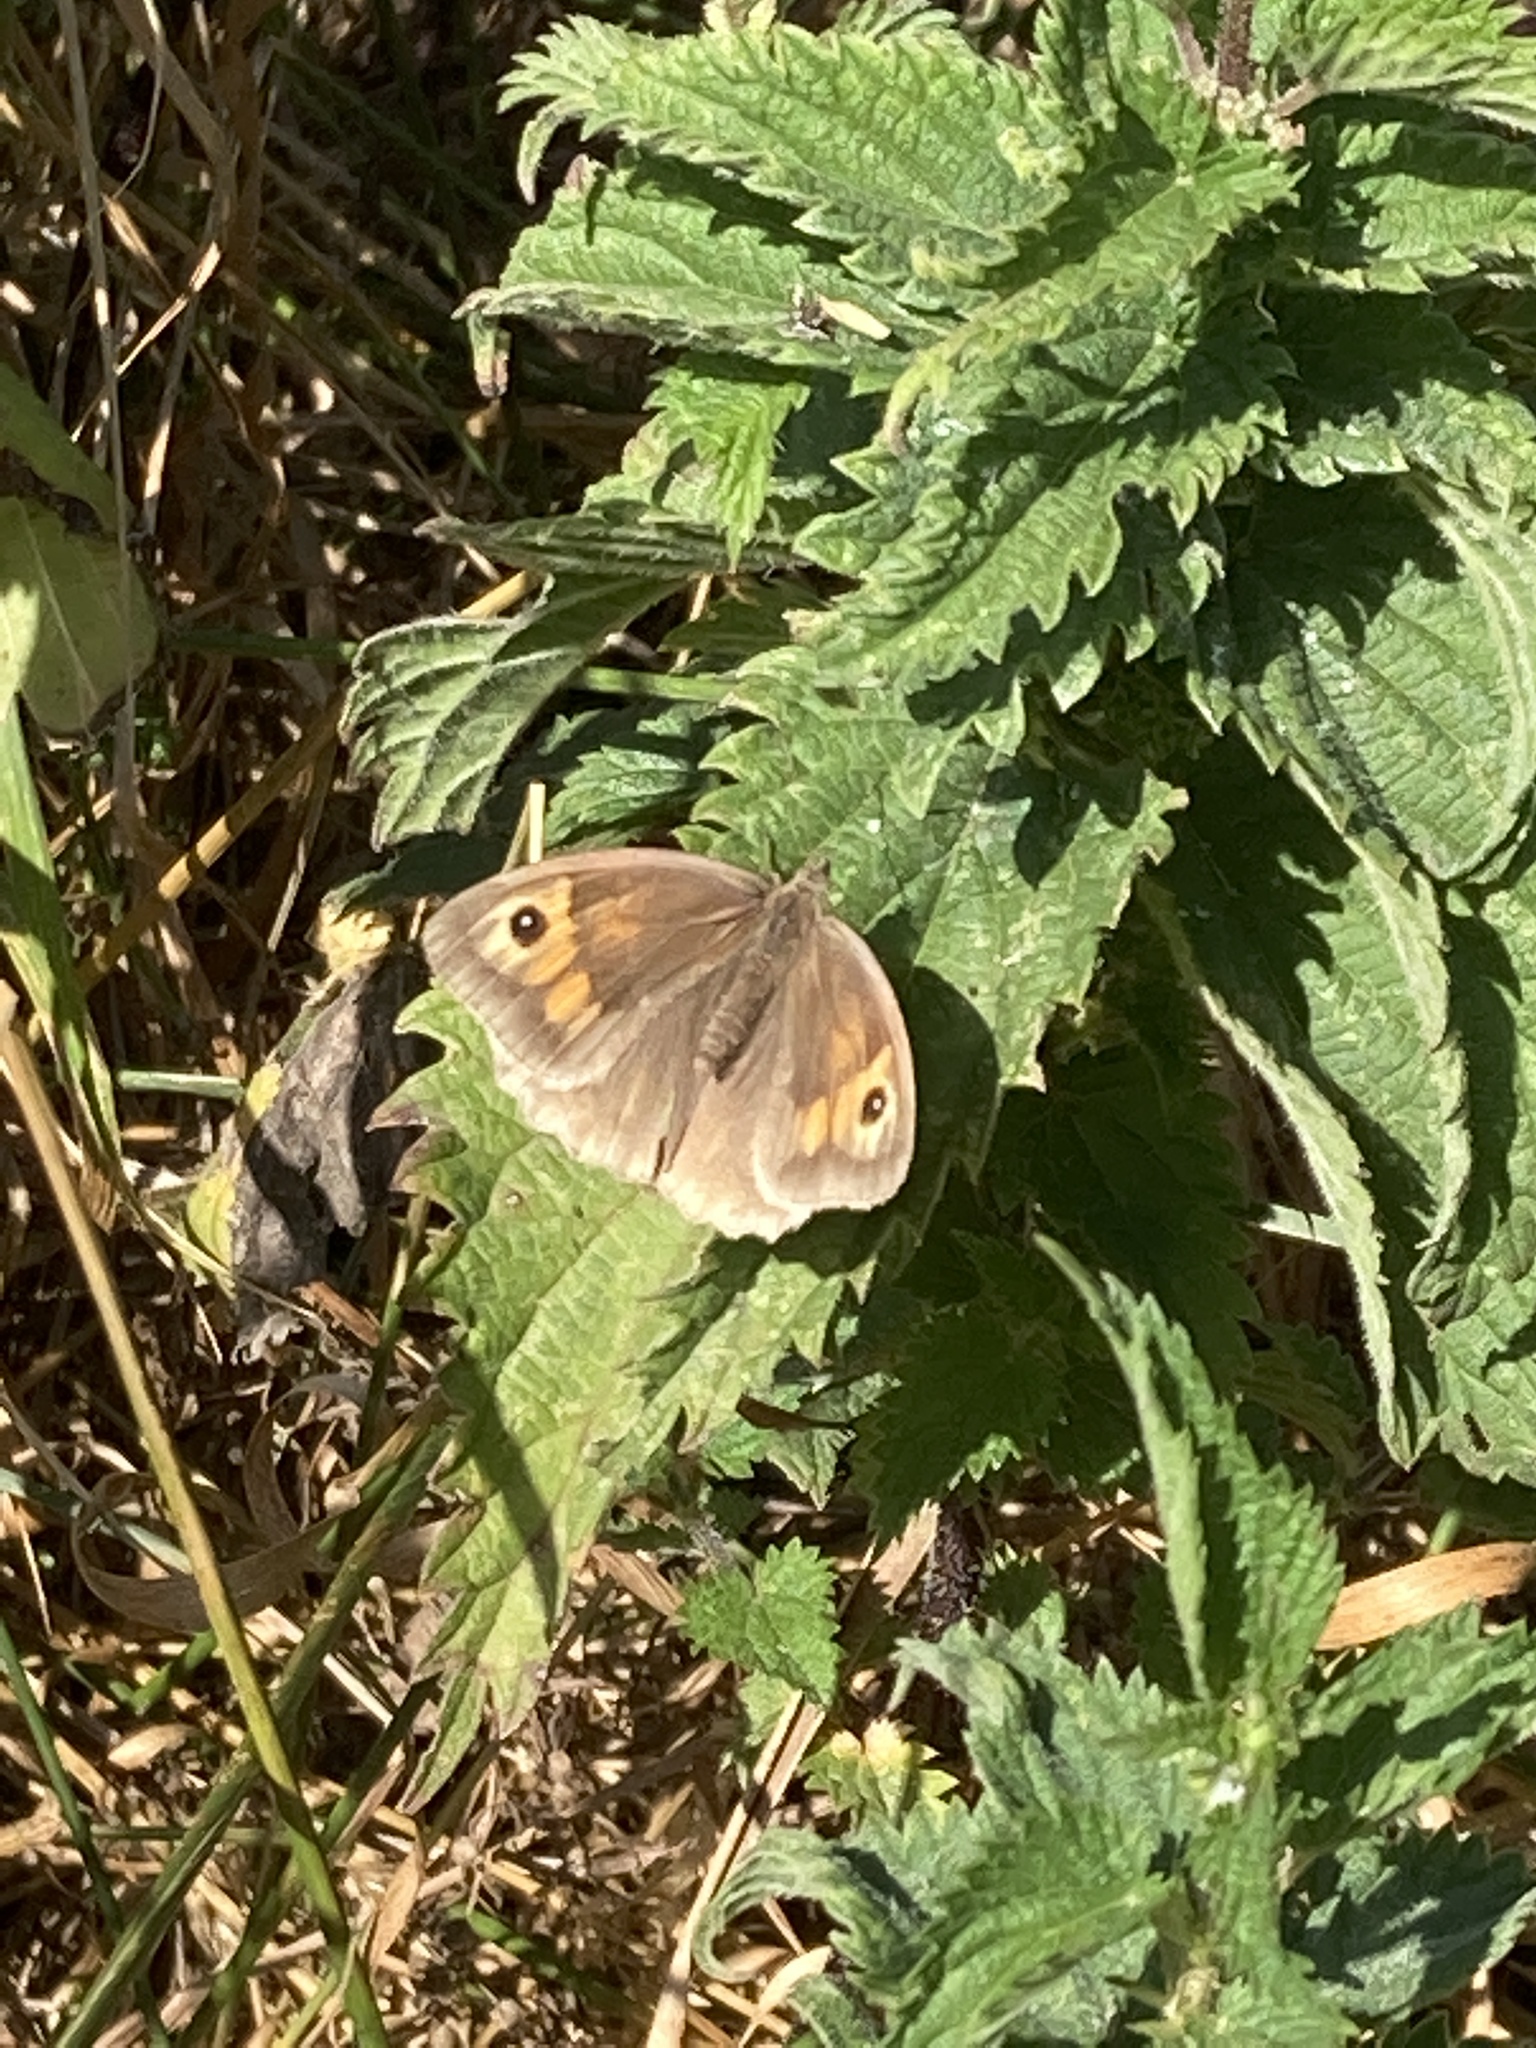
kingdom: Animalia
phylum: Arthropoda
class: Insecta
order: Lepidoptera
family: Nymphalidae
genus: Maniola
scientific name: Maniola jurtina
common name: Meadow brown
